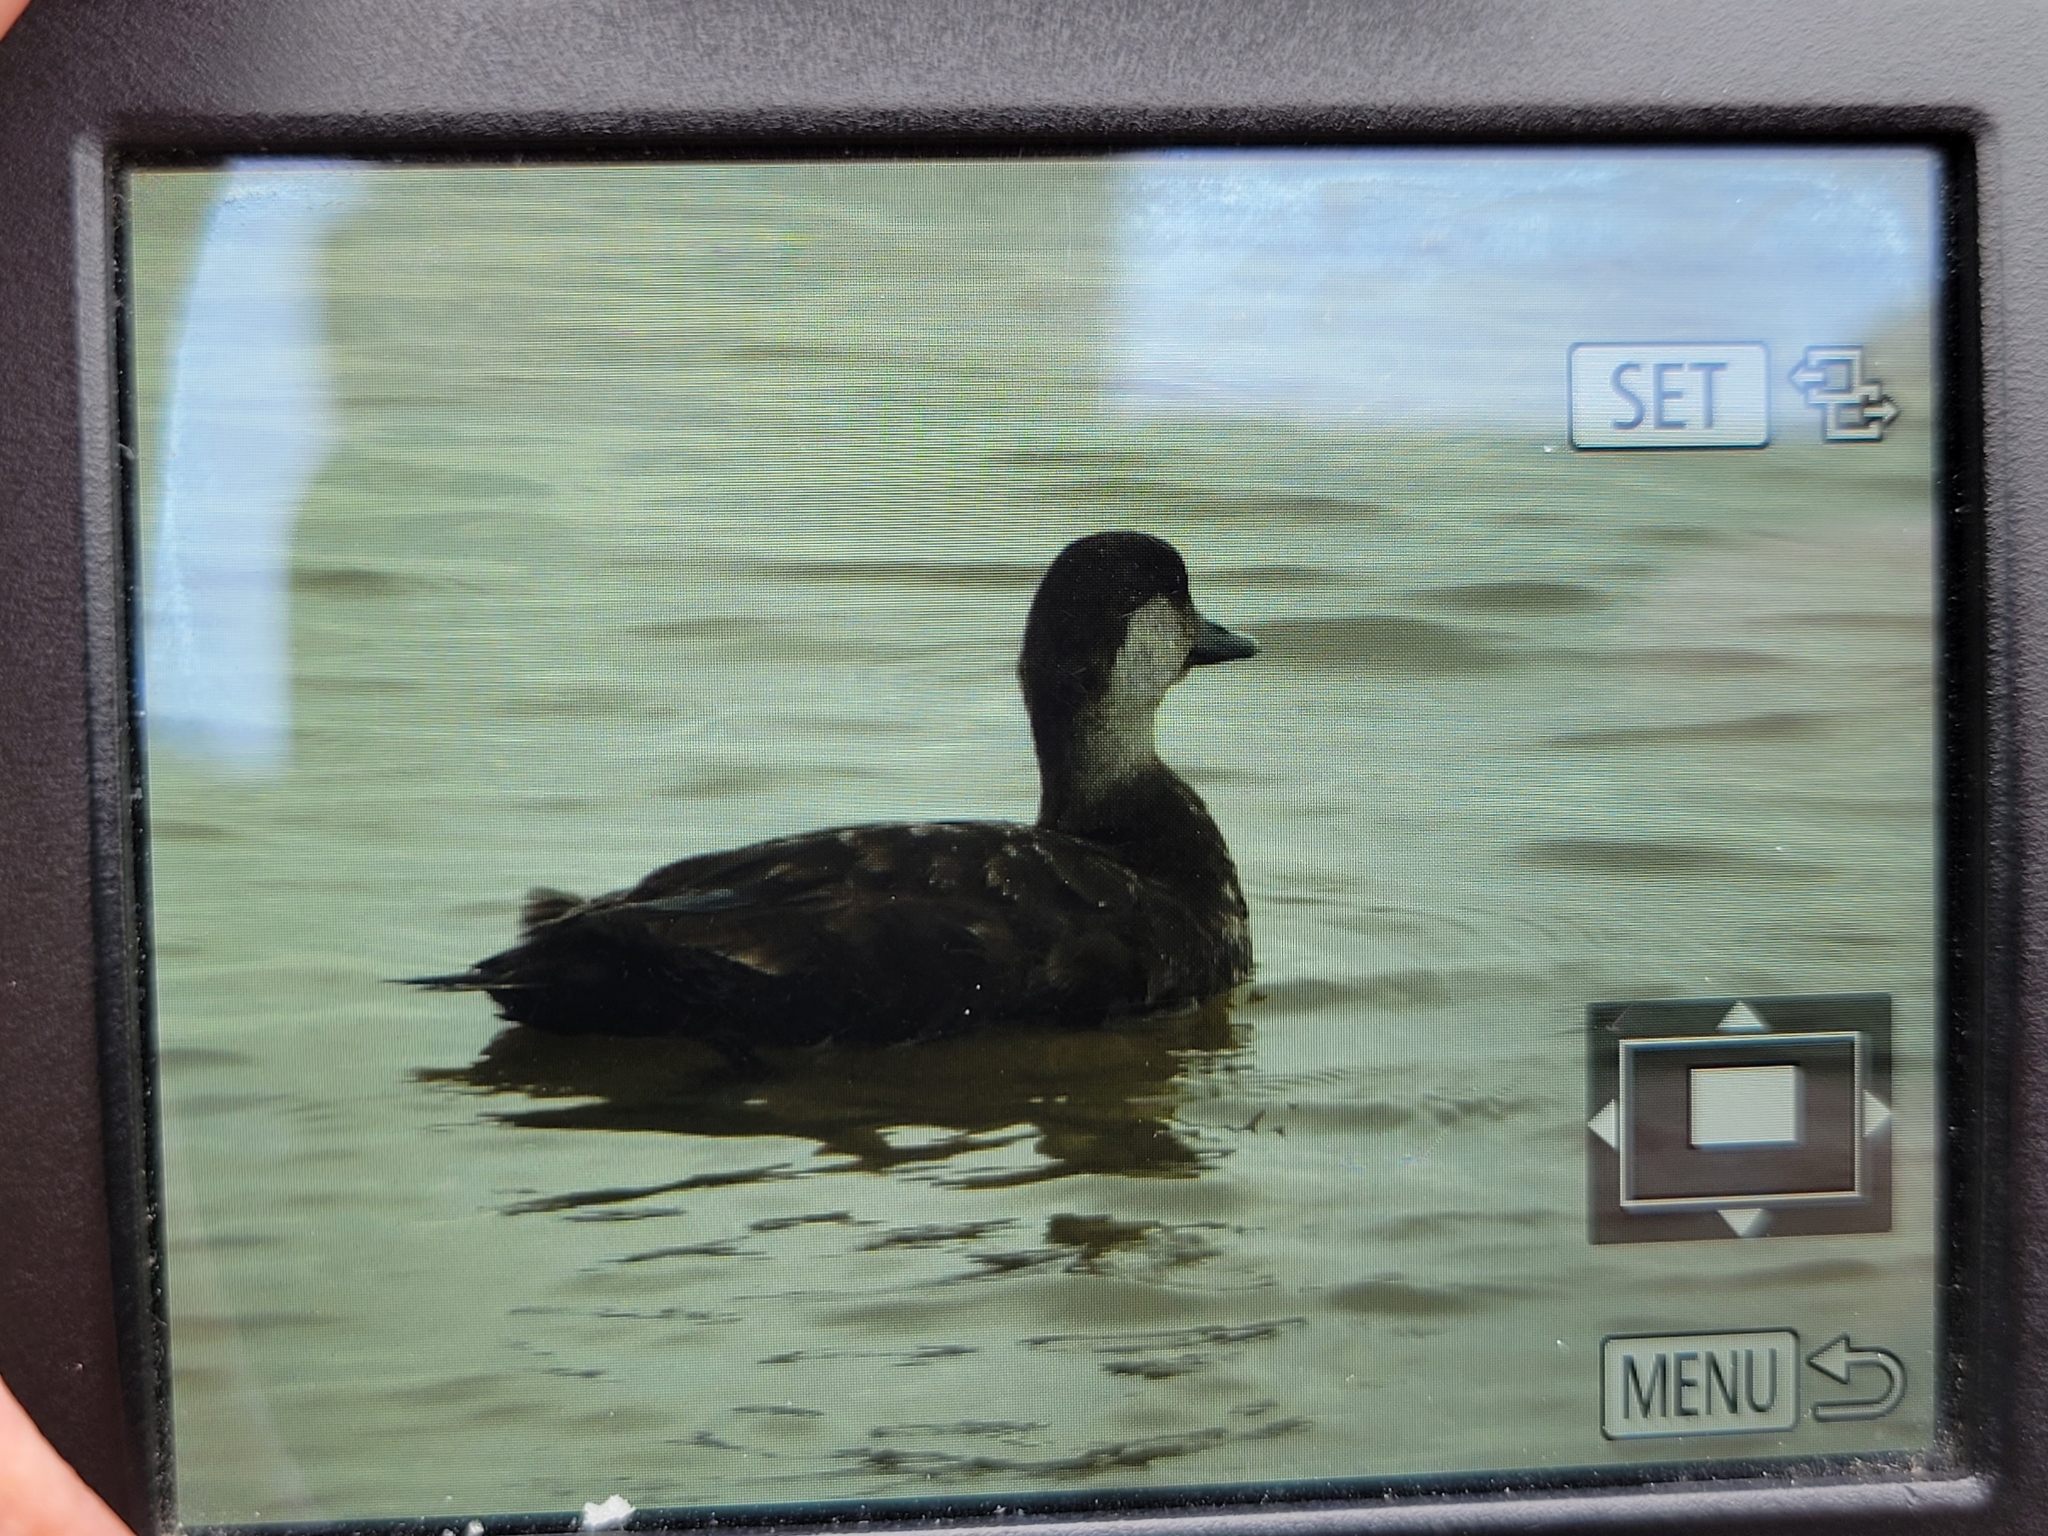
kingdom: Animalia
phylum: Chordata
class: Aves
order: Anseriformes
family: Anatidae
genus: Melanitta
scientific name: Melanitta americana
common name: Black scoter
